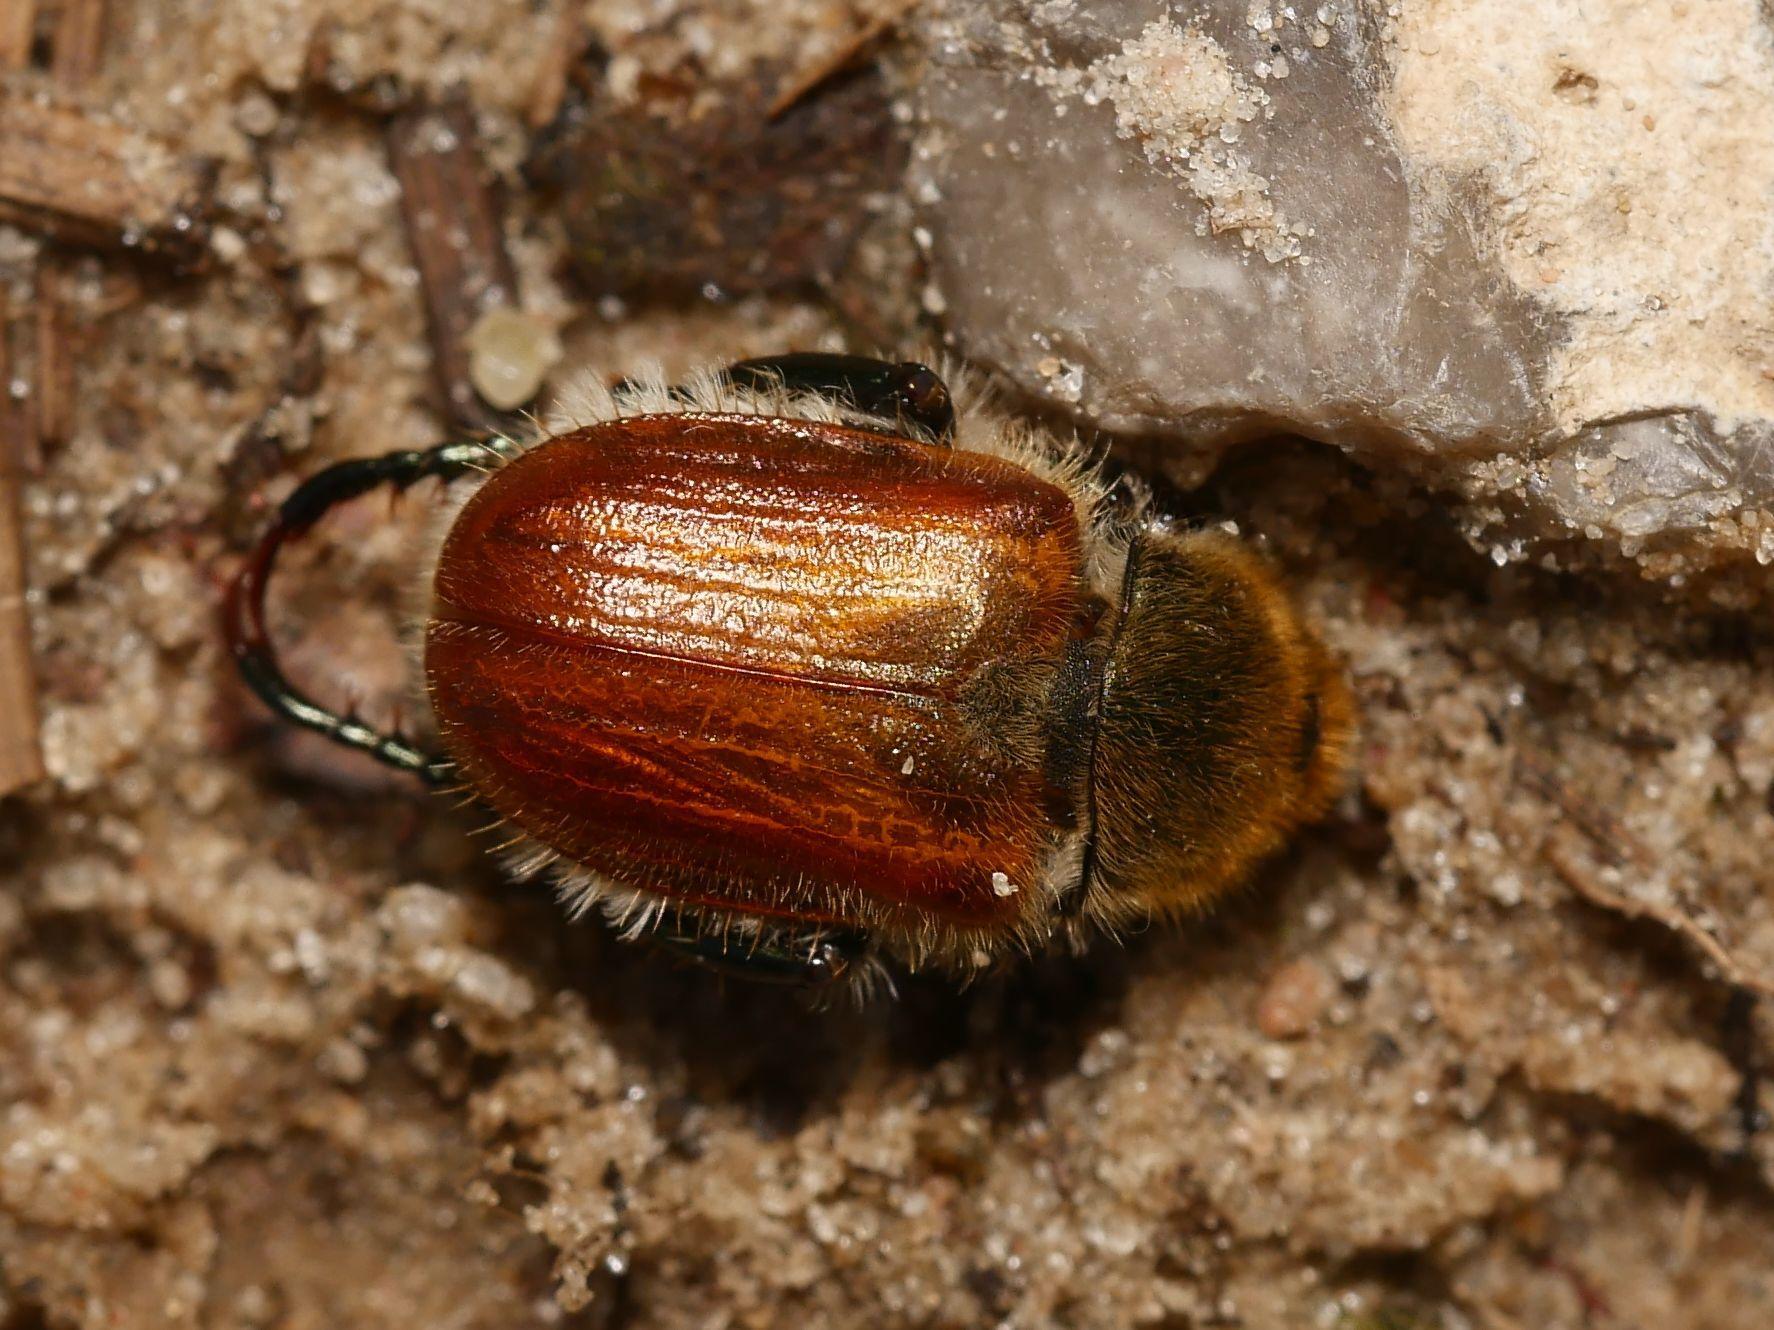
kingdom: Animalia
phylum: Arthropoda
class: Insecta
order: Coleoptera
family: Scarabaeidae
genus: Chaetopteroplia
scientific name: Chaetopteroplia segetum
